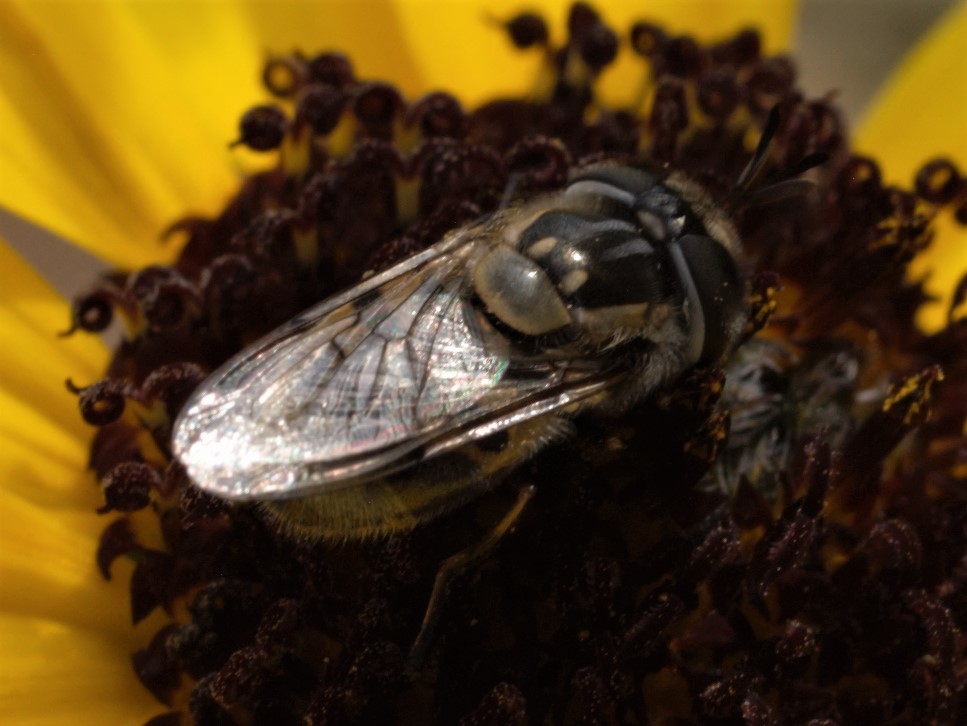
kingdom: Animalia
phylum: Arthropoda
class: Insecta
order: Diptera
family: Syrphidae
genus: Copestylum
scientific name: Copestylum lentum
